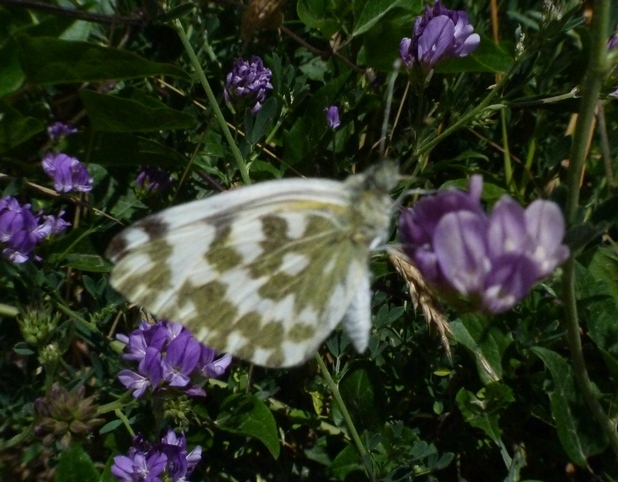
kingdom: Animalia
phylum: Arthropoda
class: Insecta
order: Lepidoptera
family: Pieridae
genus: Pontia
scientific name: Pontia daplidice
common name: Bath white
